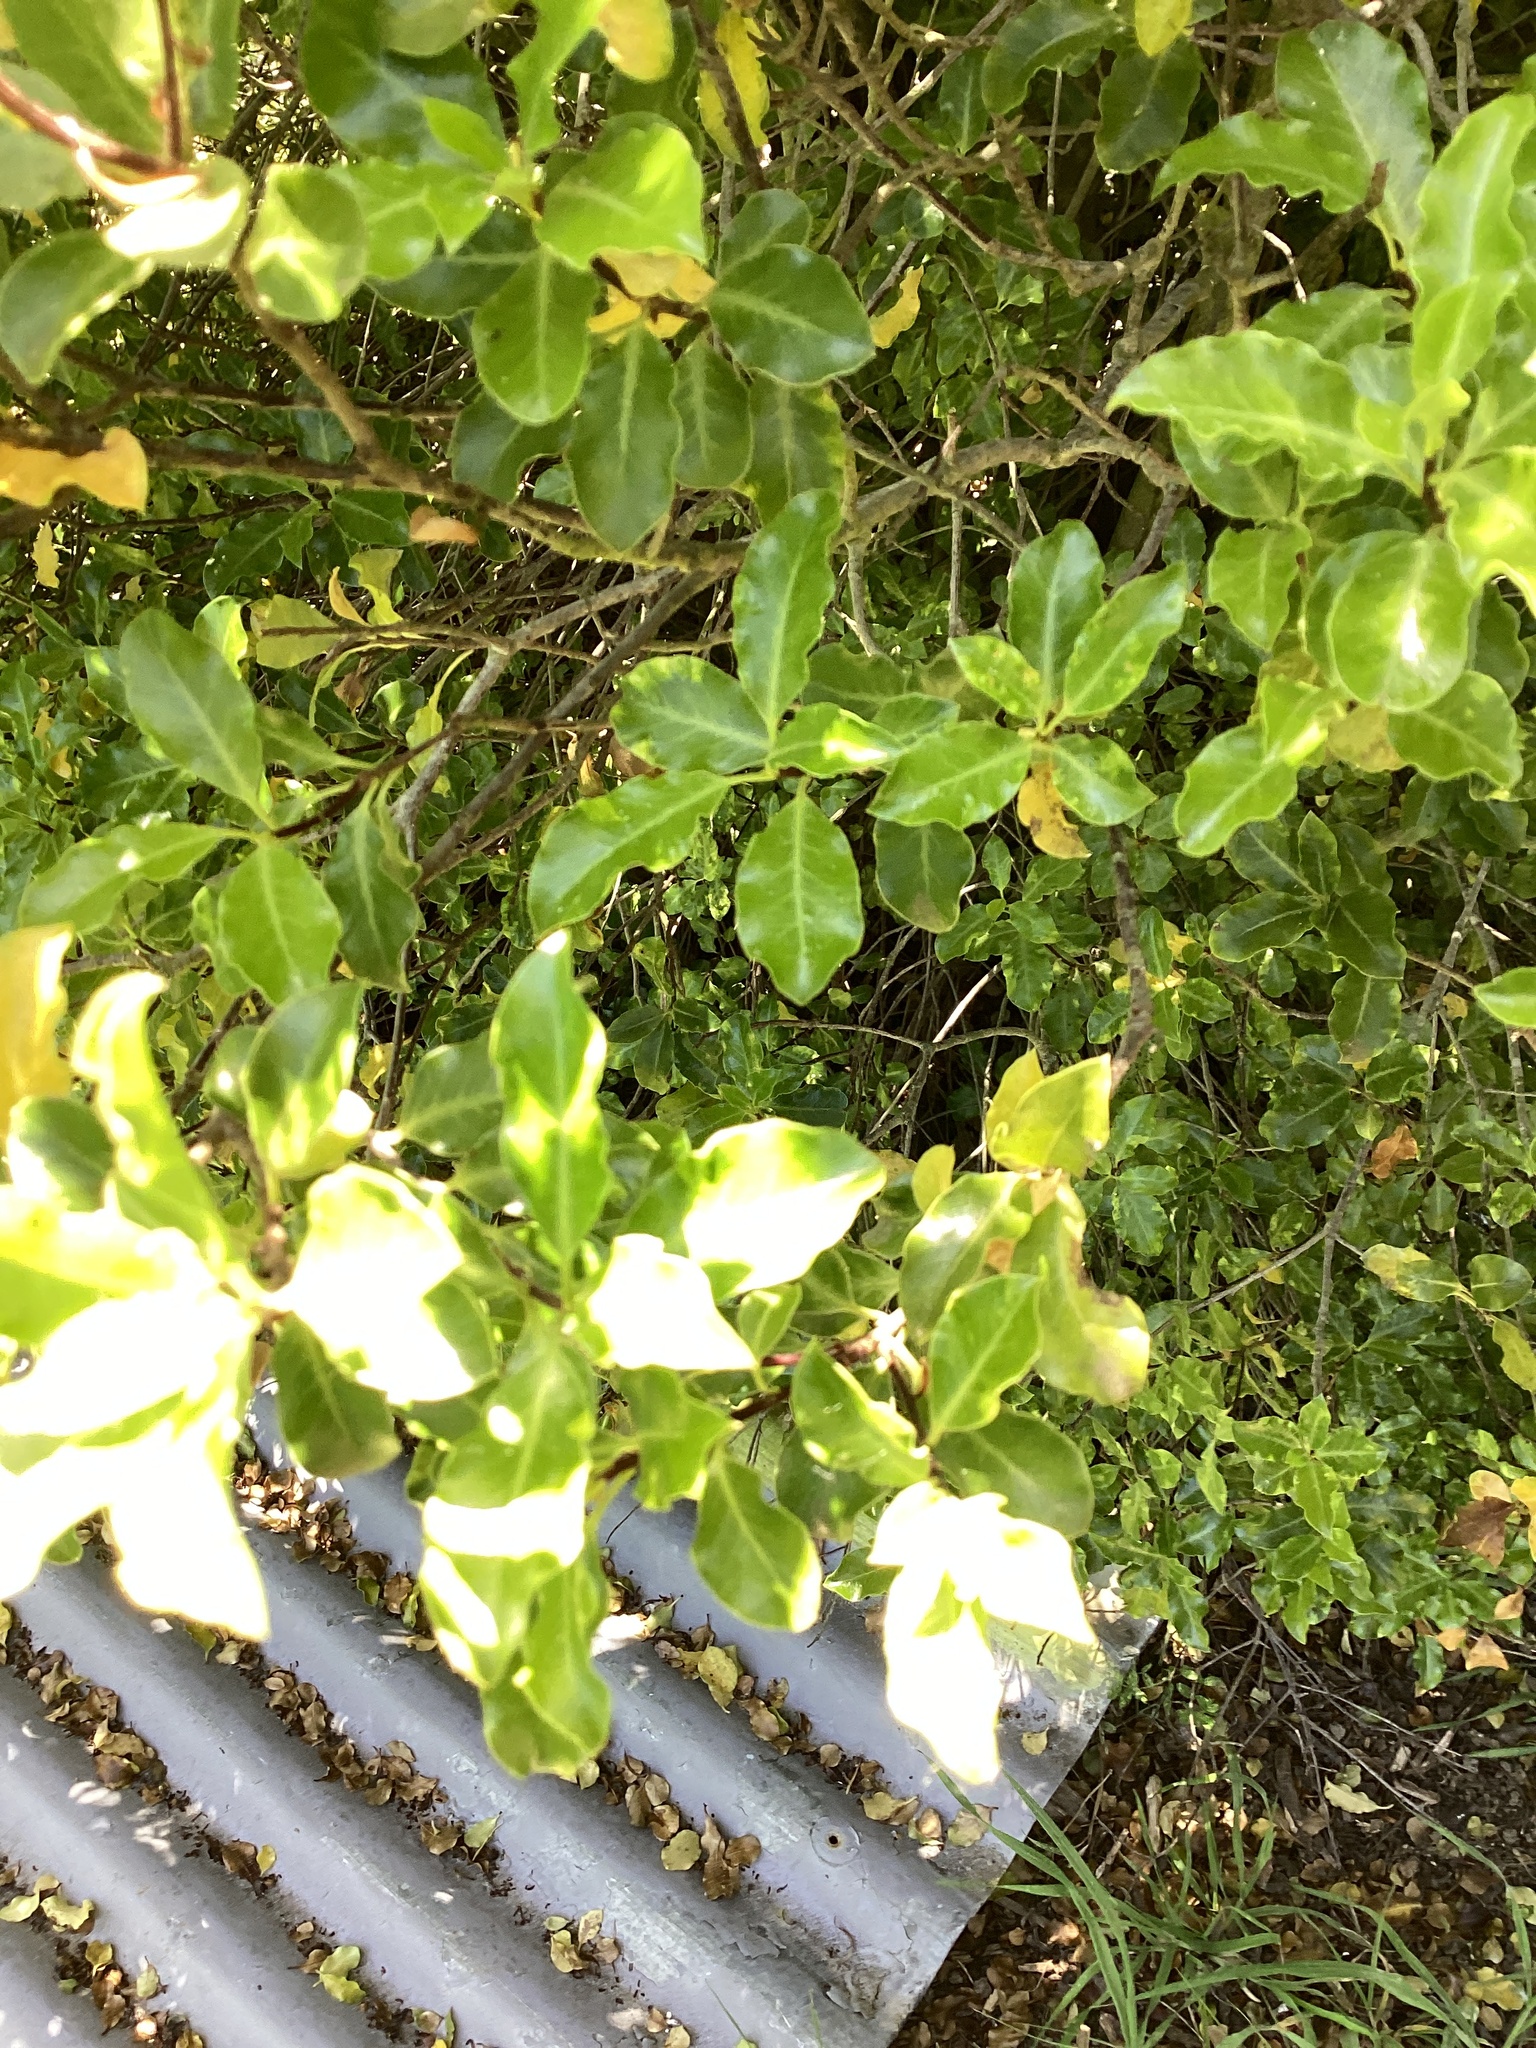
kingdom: Plantae
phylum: Tracheophyta
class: Magnoliopsida
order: Apiales
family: Pittosporaceae
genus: Pittosporum
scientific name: Pittosporum tenuifolium
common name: Kohuhu
